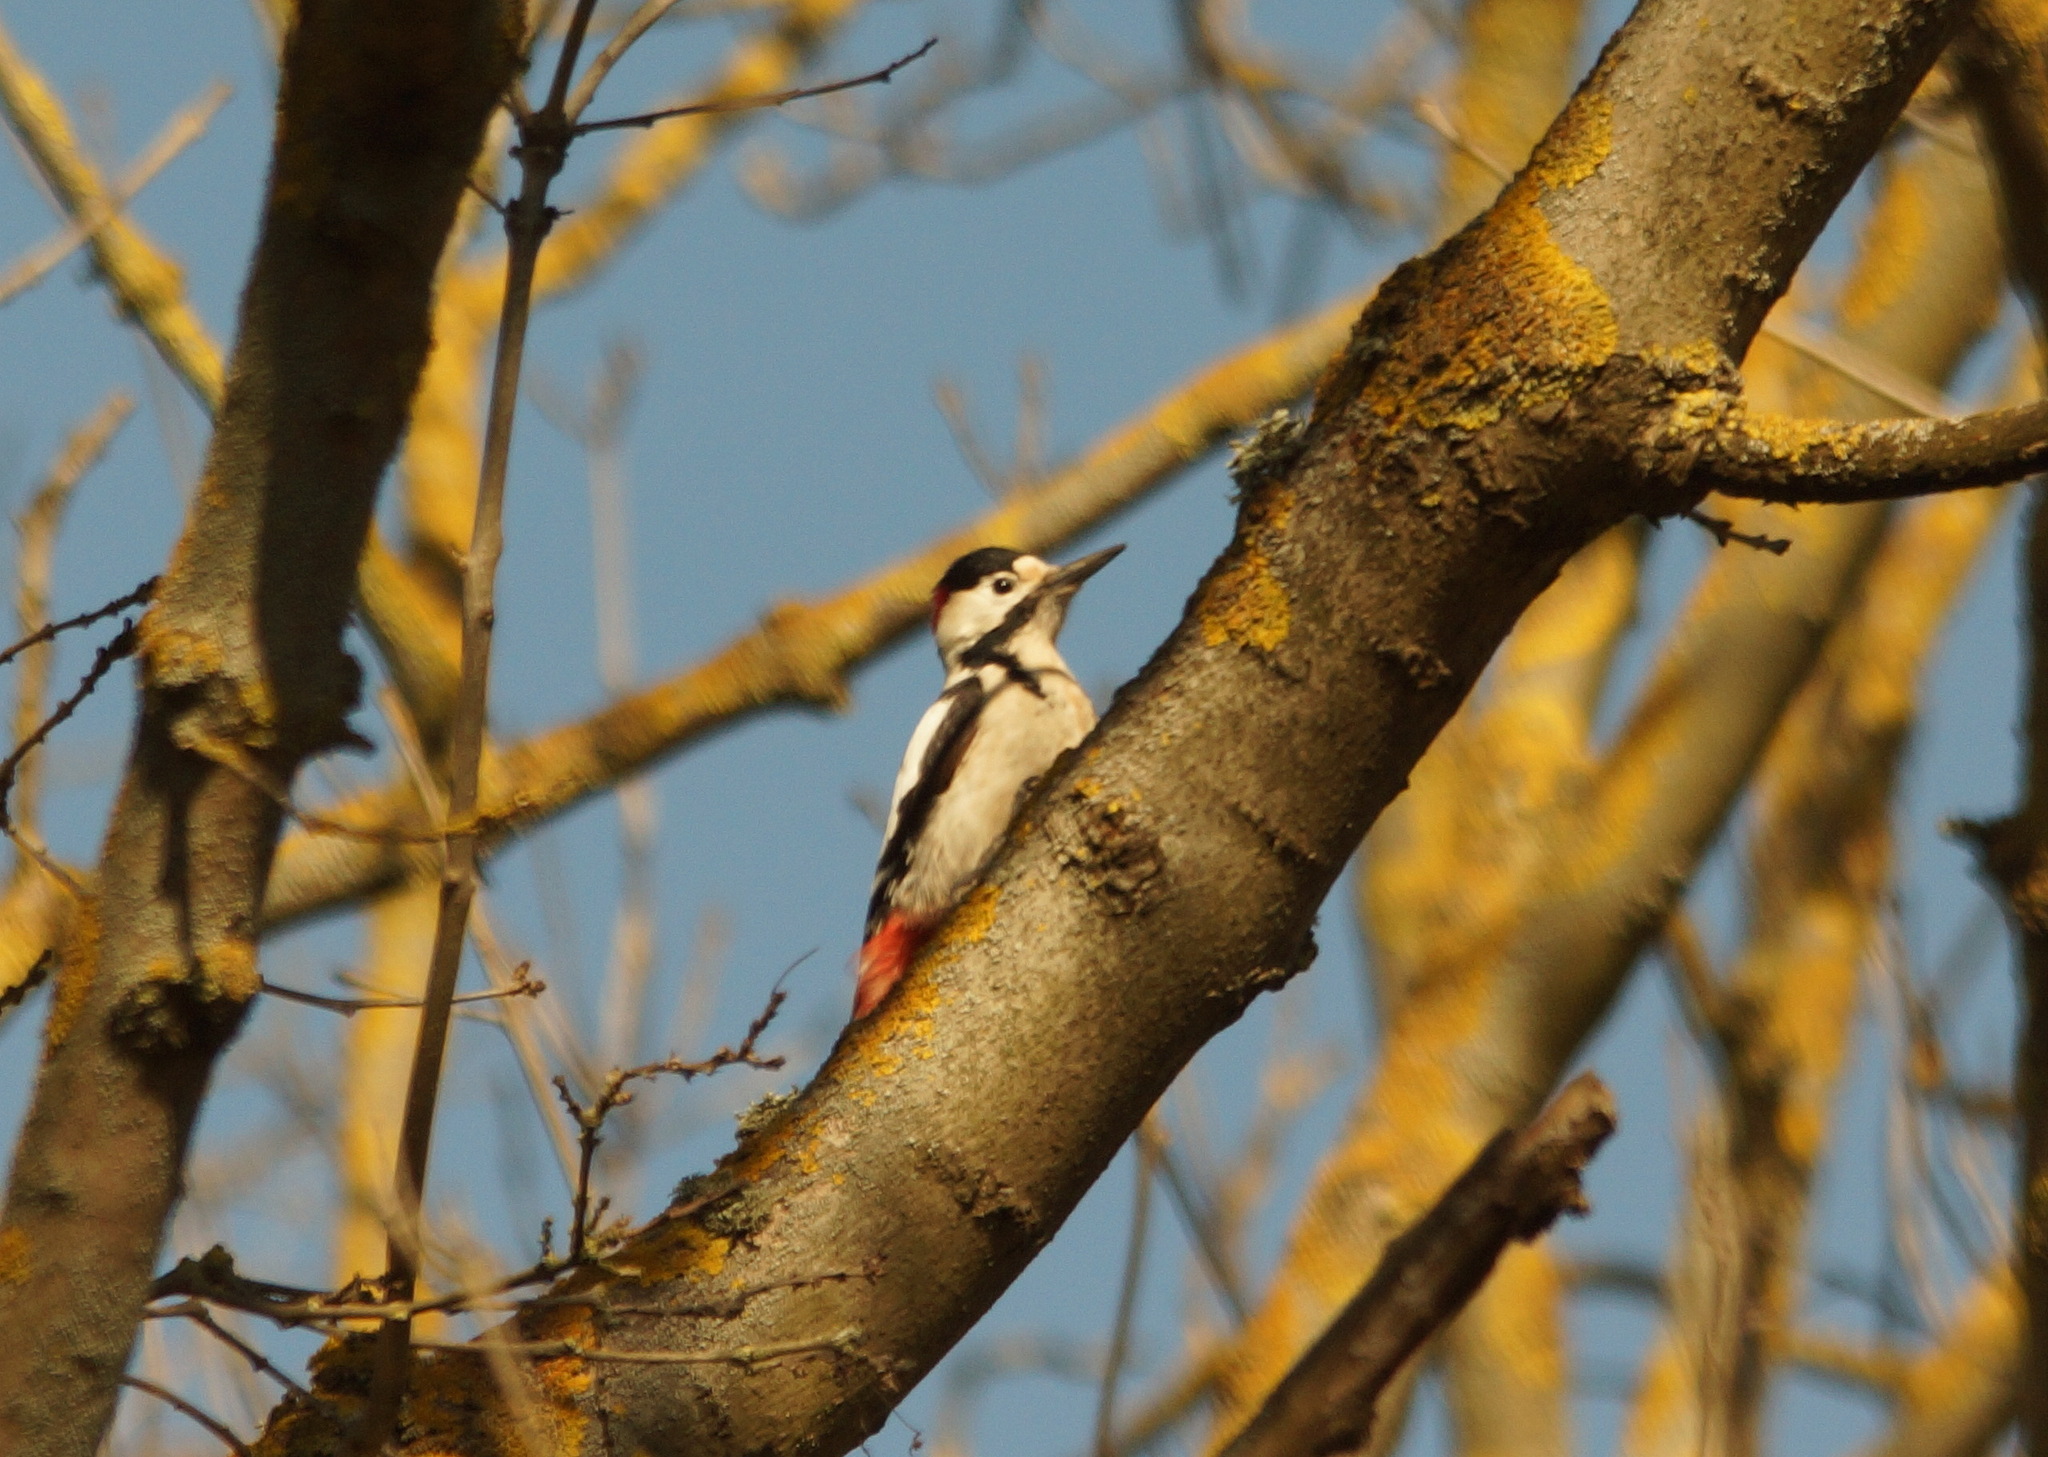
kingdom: Animalia
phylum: Chordata
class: Aves
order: Piciformes
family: Picidae
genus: Dendrocopos
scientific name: Dendrocopos syriacus
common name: Syrian woodpecker
